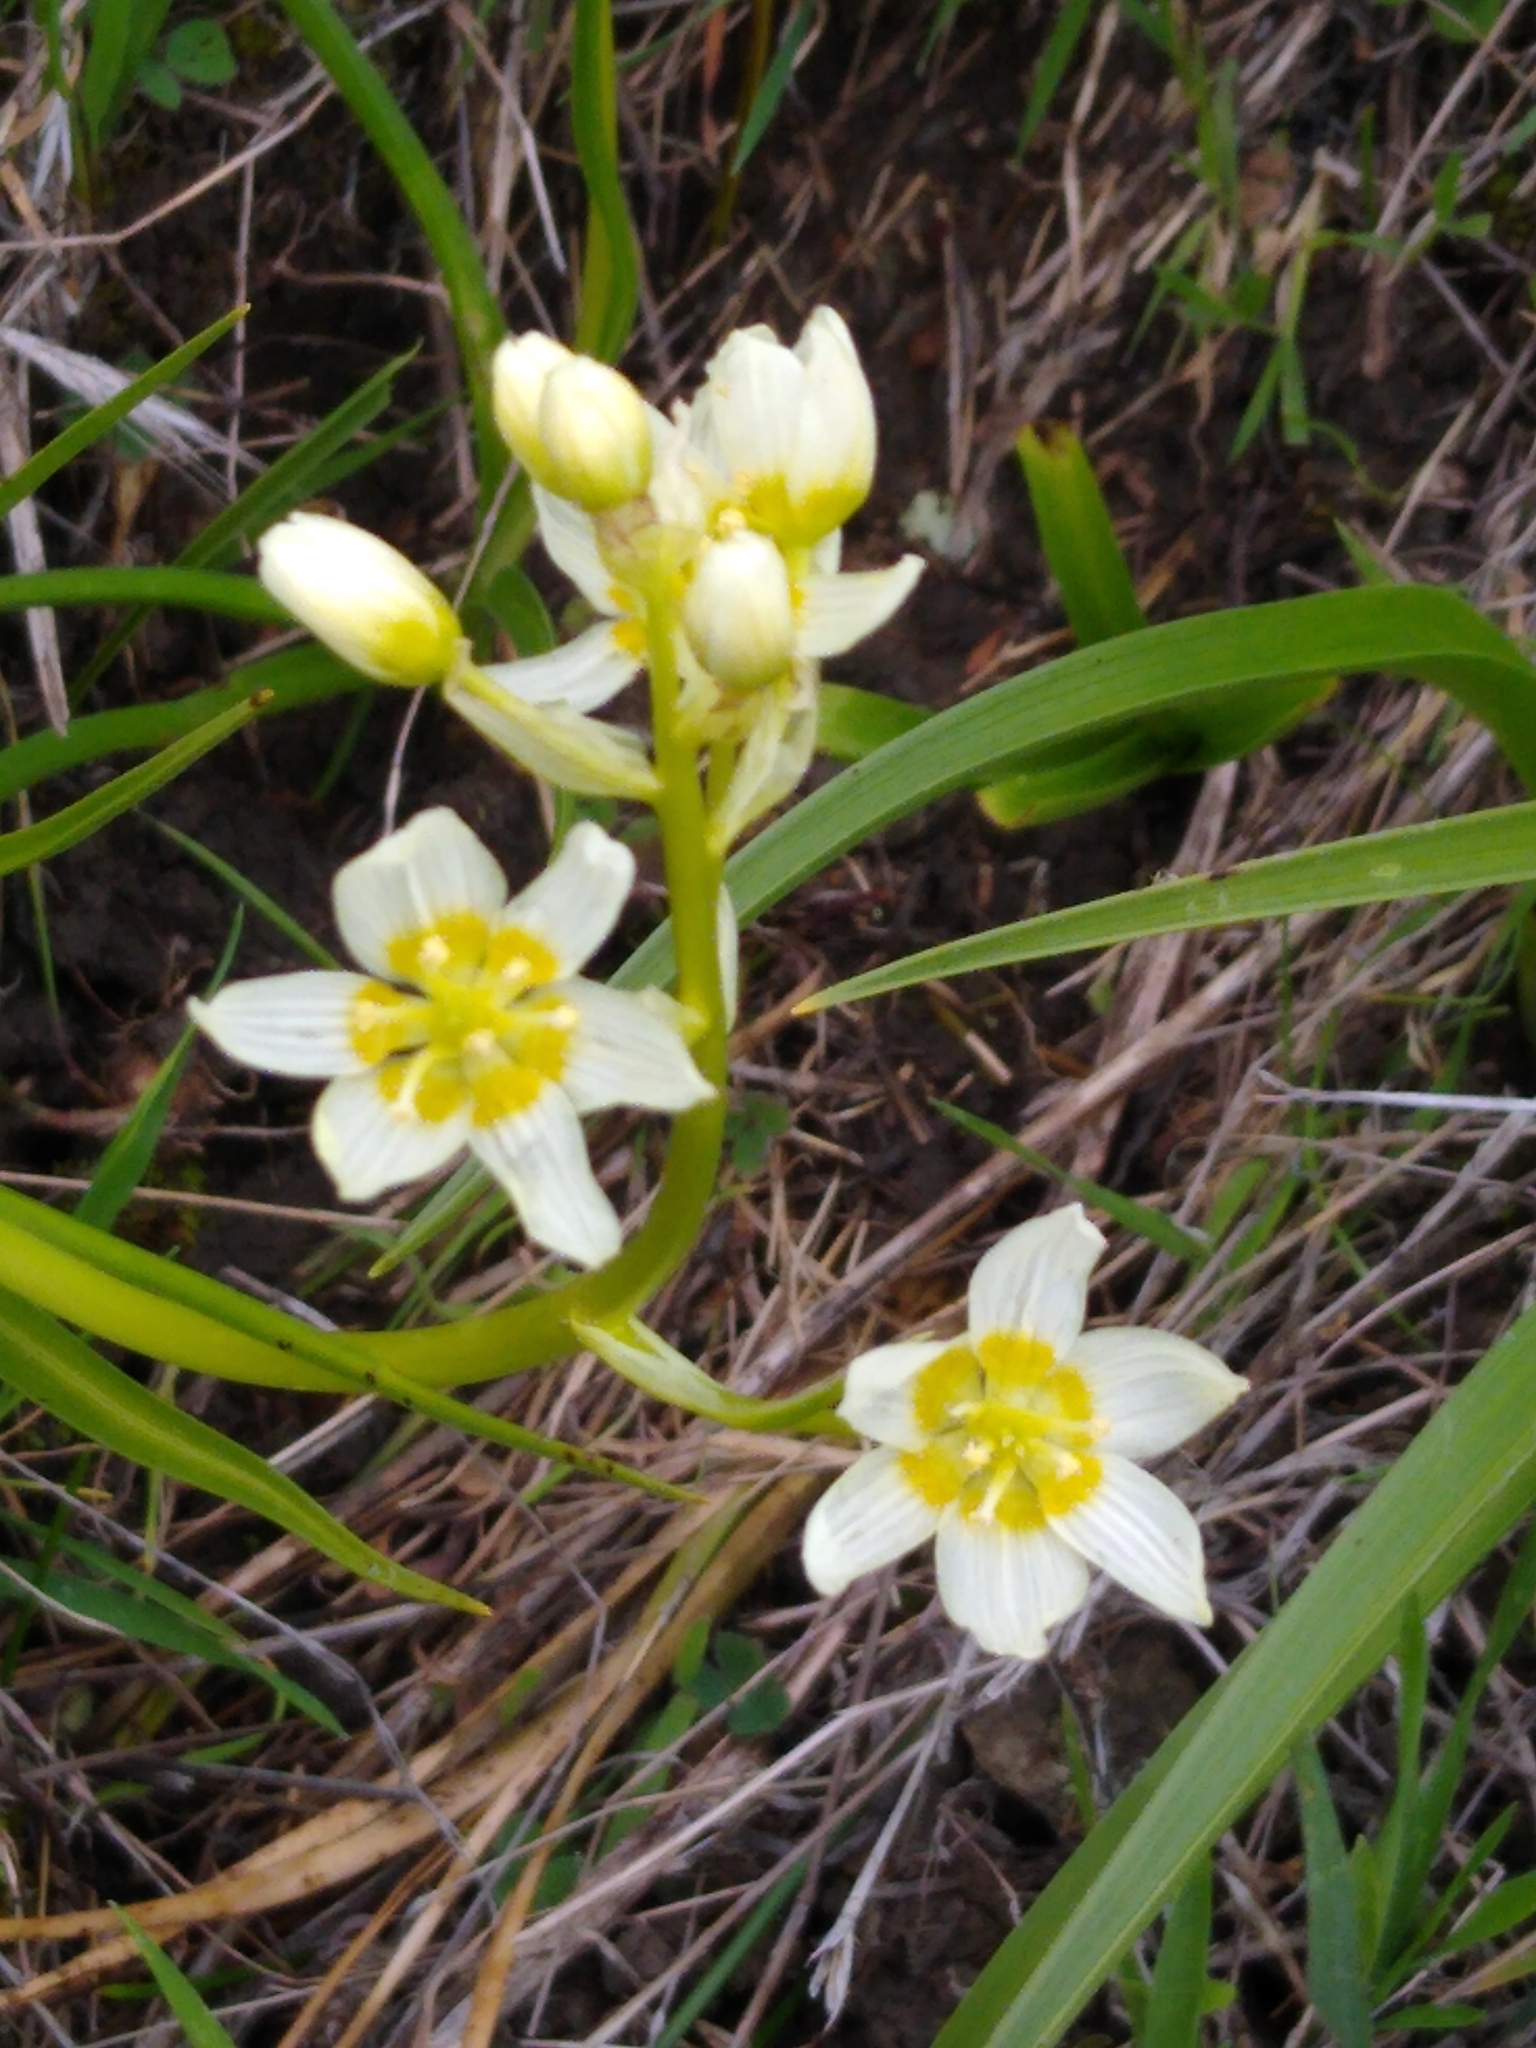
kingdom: Plantae
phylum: Tracheophyta
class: Liliopsida
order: Liliales
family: Melanthiaceae
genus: Toxicoscordion
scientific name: Toxicoscordion fremontii
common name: Fremont's death camas
